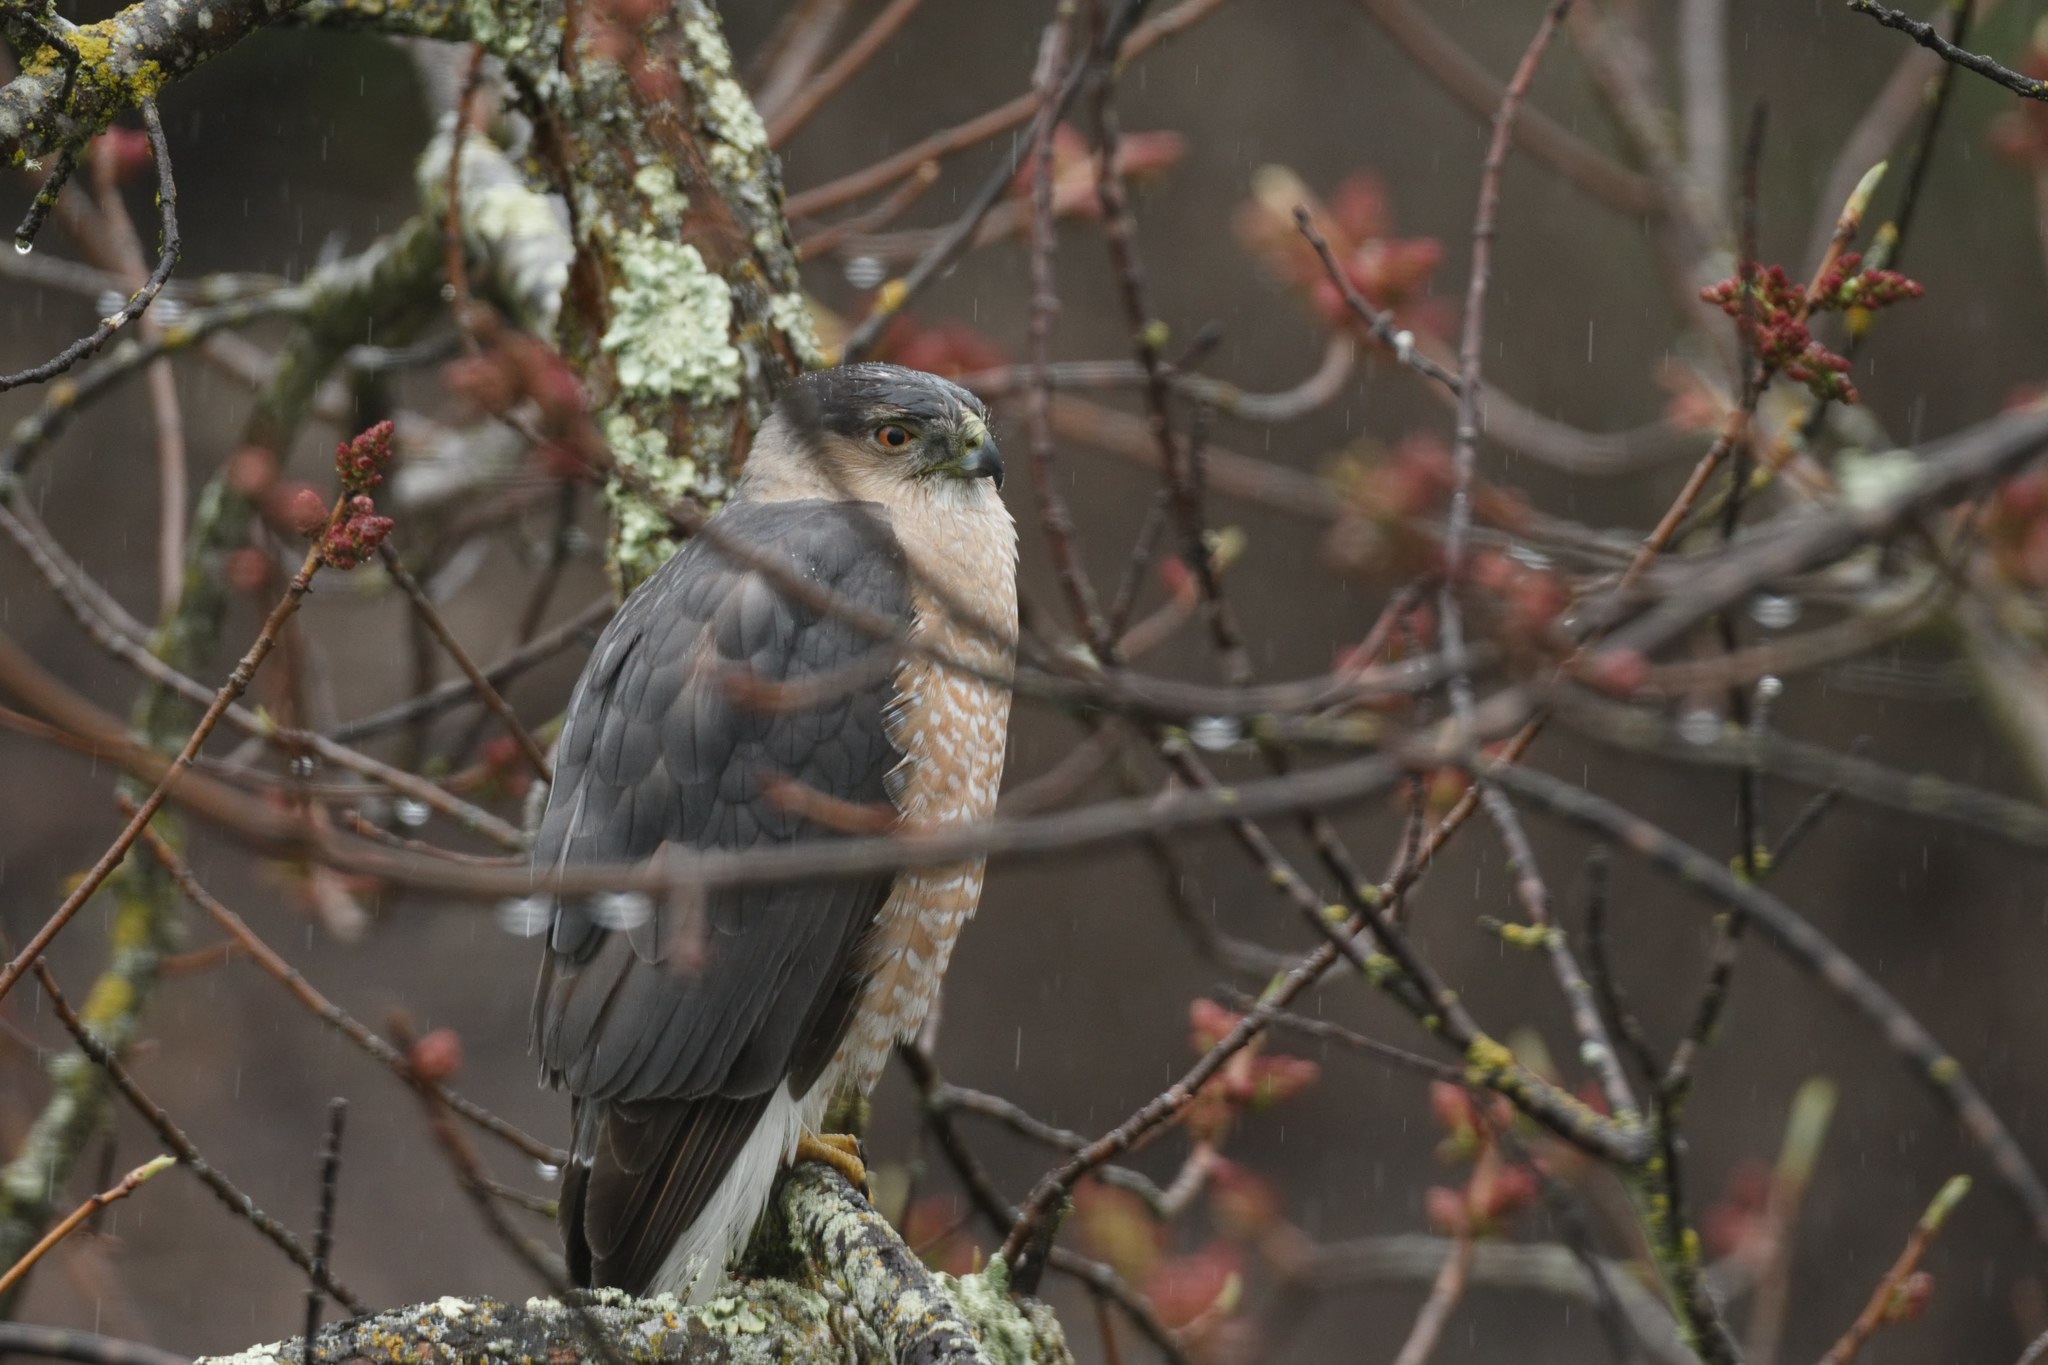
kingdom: Animalia
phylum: Chordata
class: Aves
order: Accipitriformes
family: Accipitridae
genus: Accipiter
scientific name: Accipiter cooperii
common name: Cooper's hawk
